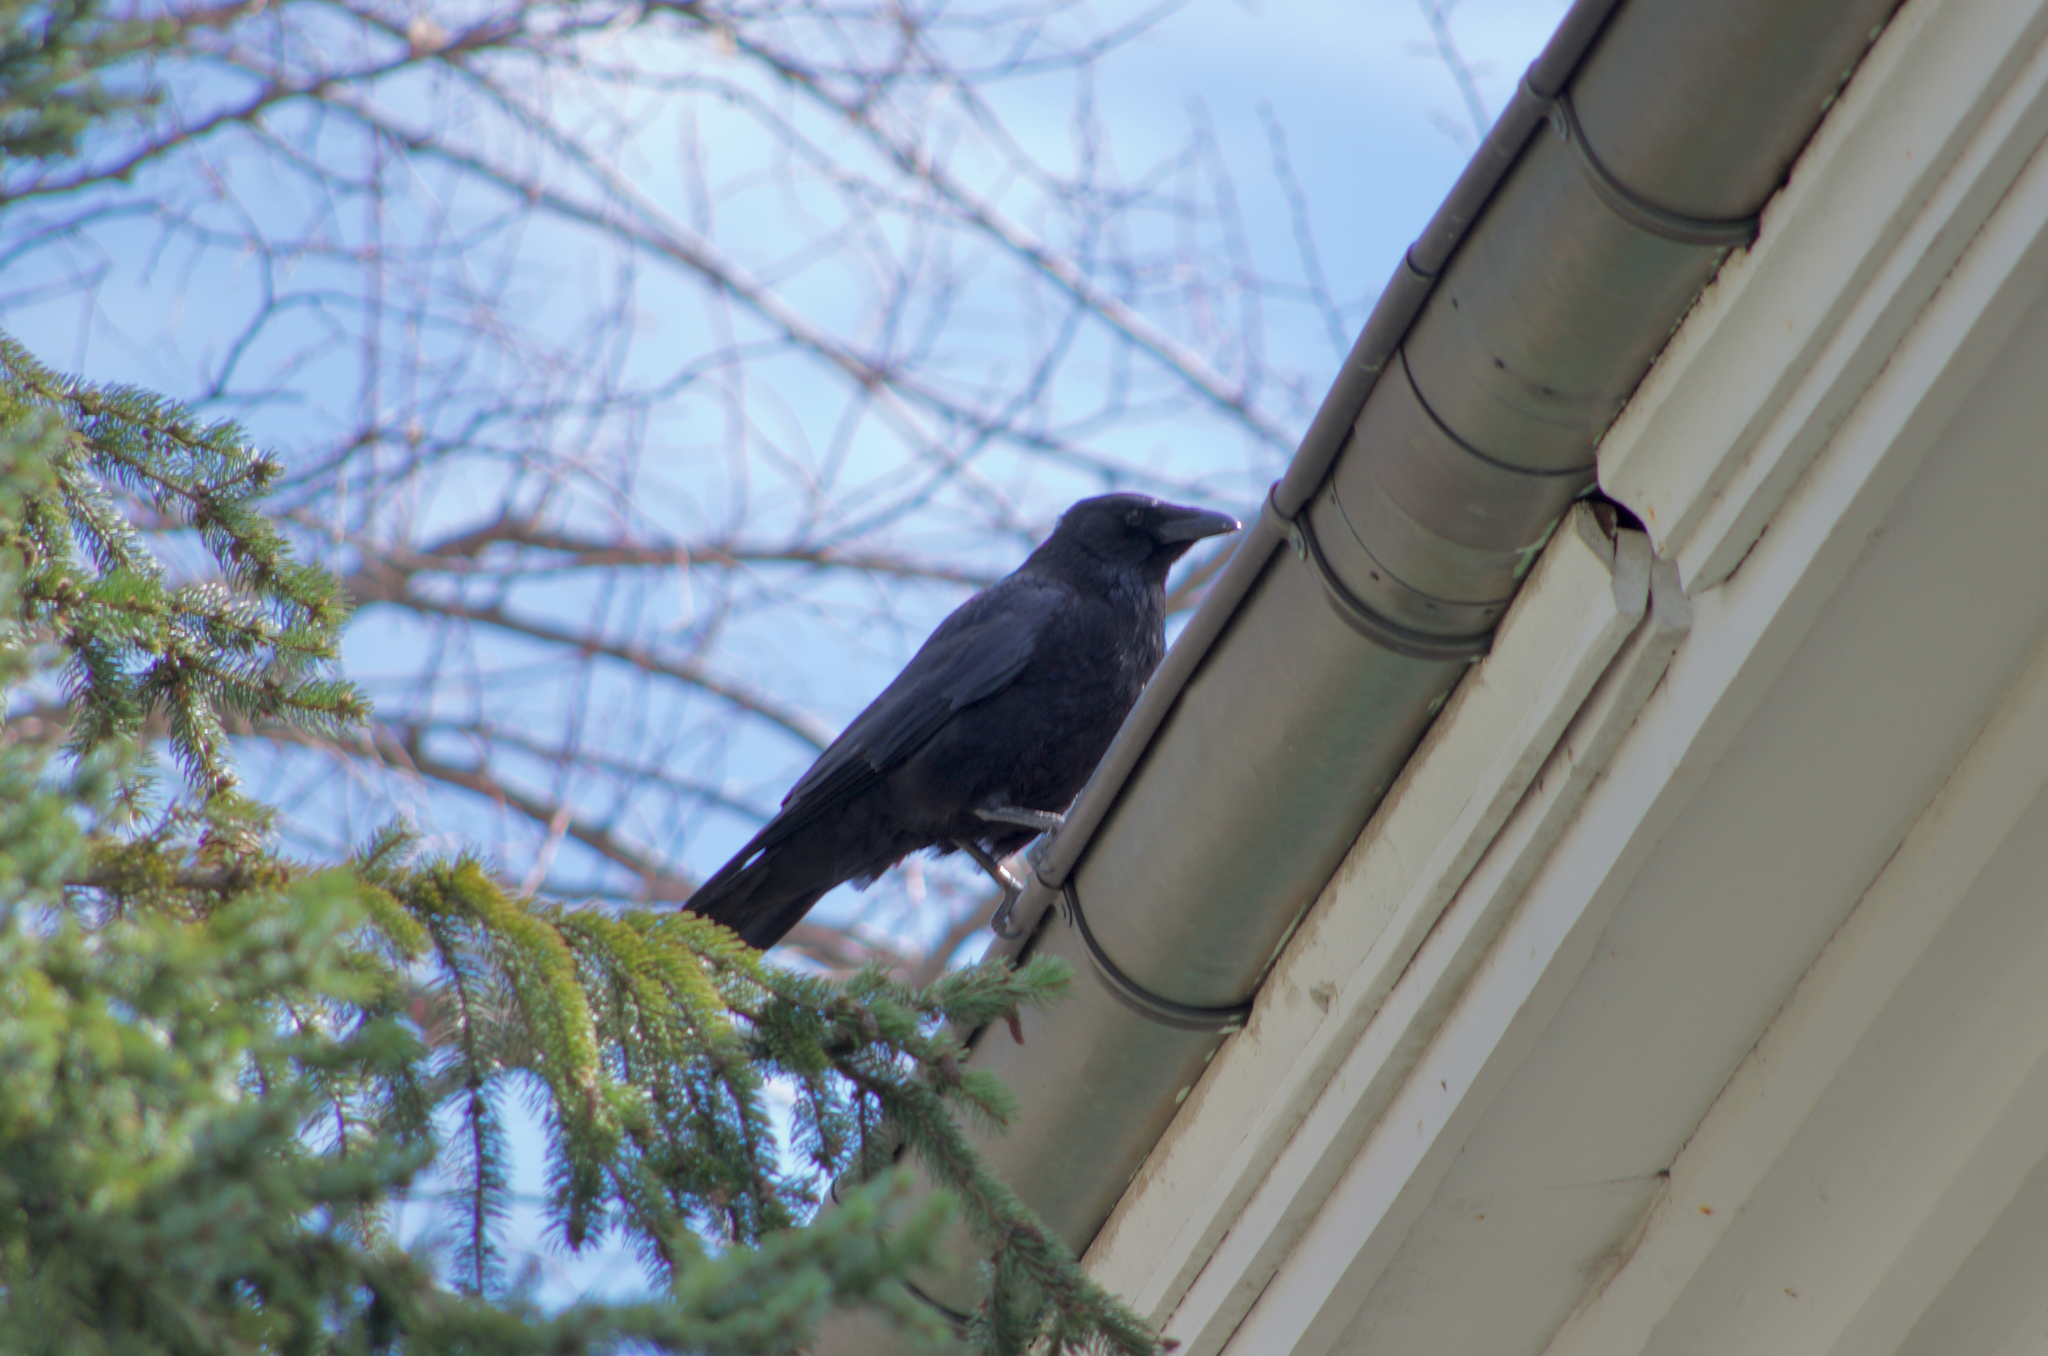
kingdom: Animalia
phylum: Chordata
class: Aves
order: Passeriformes
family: Corvidae
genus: Corvus
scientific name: Corvus corone
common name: Carrion crow
